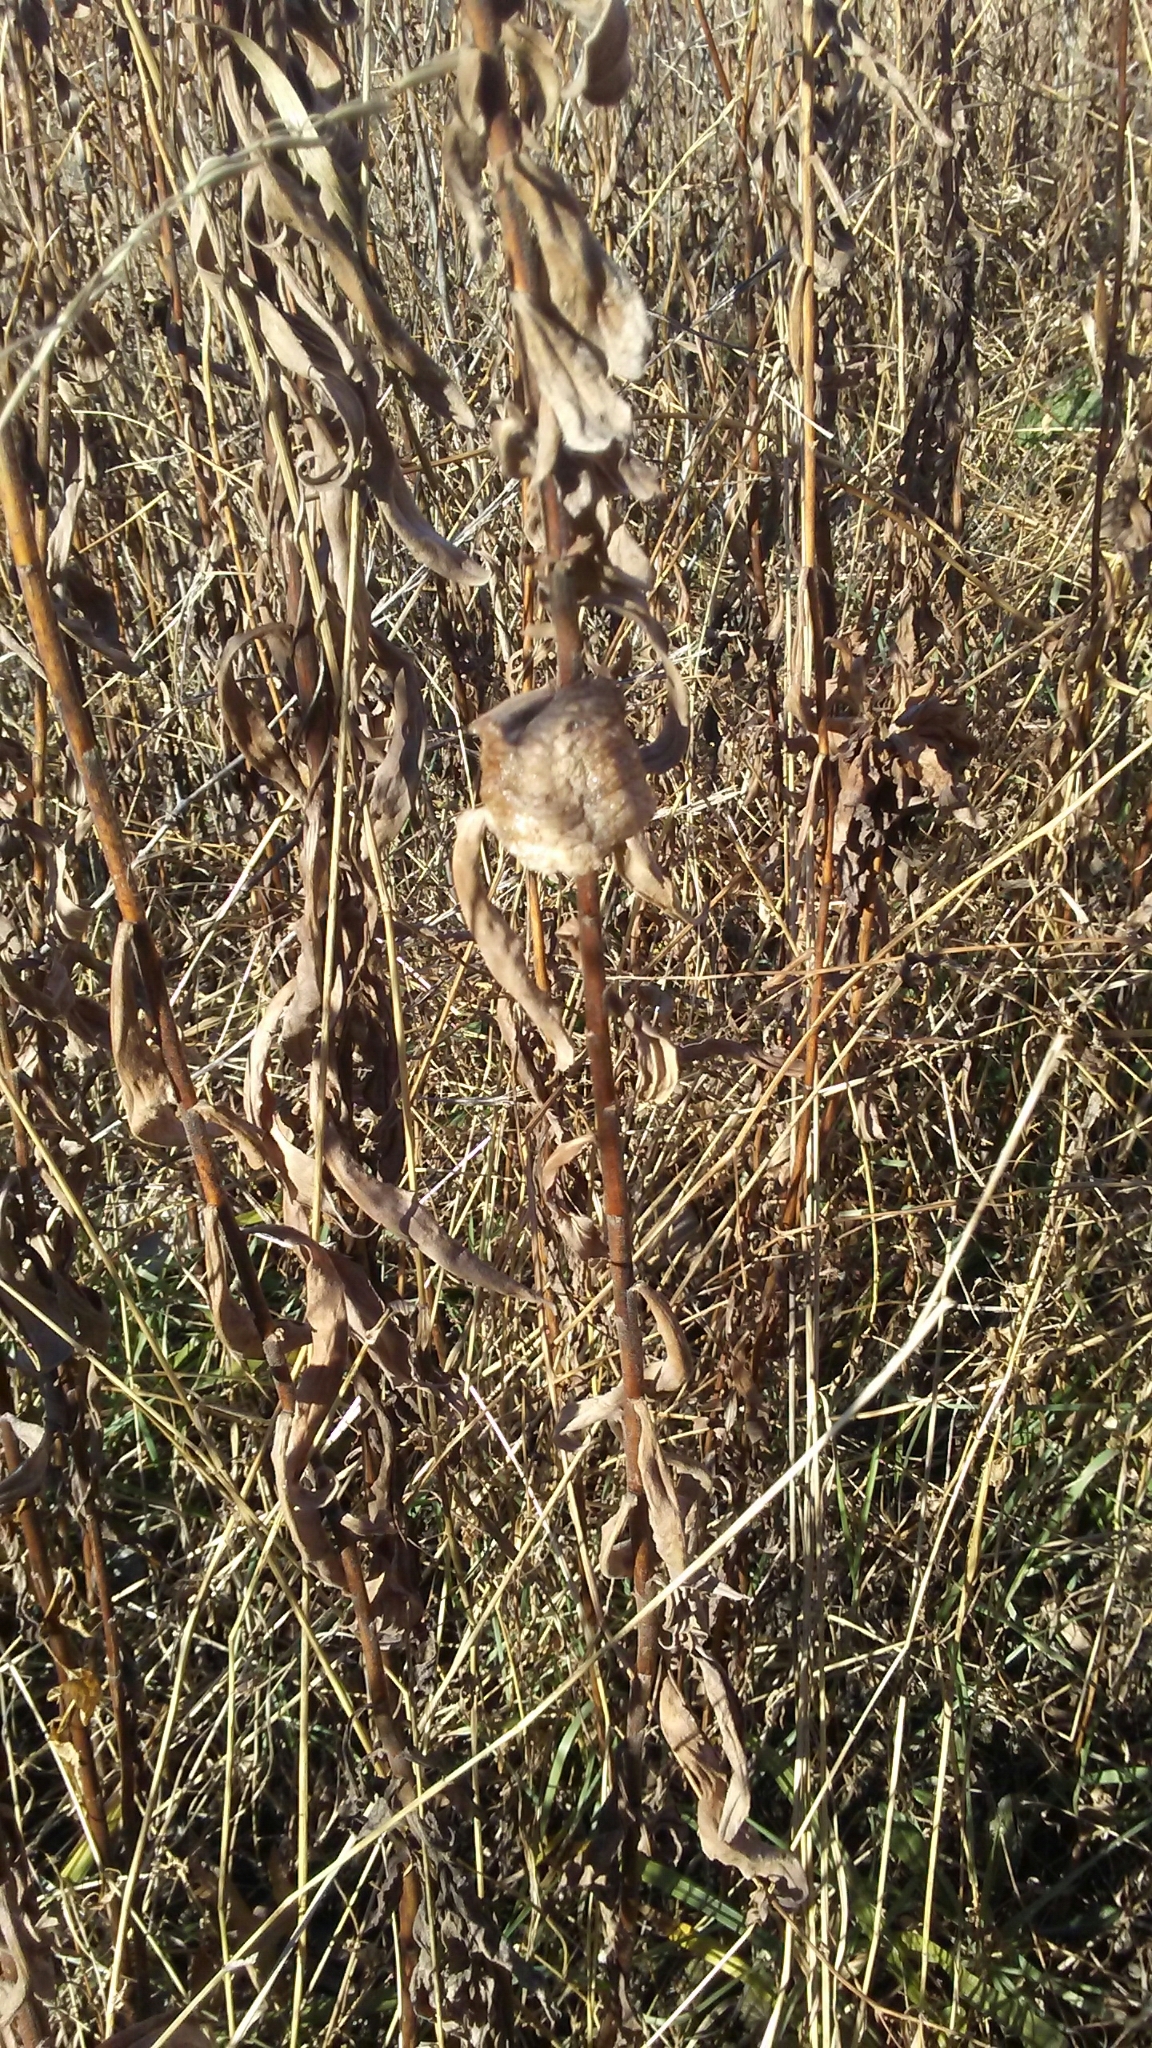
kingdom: Animalia
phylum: Arthropoda
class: Insecta
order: Mantodea
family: Mantidae
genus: Tenodera
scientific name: Tenodera sinensis
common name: Chinese mantis
